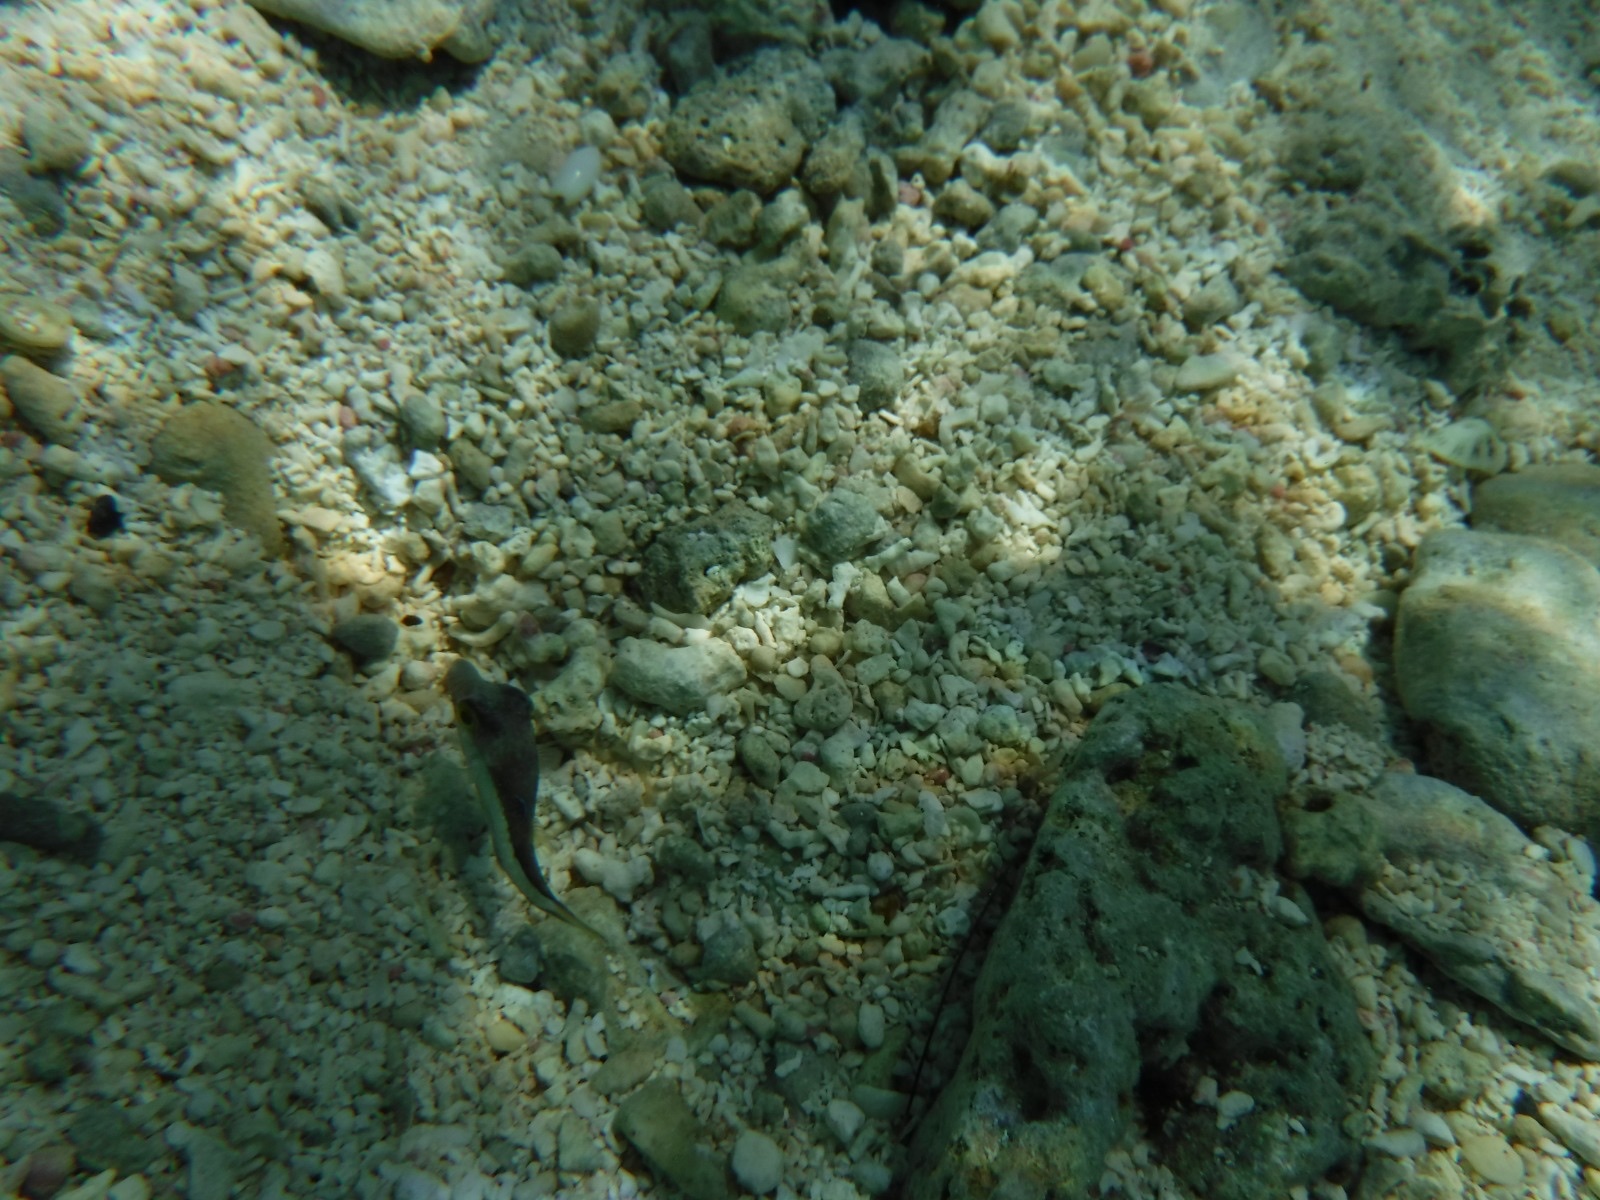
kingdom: Animalia
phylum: Chordata
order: Tetraodontiformes
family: Tetraodontidae
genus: Canthigaster
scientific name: Canthigaster rostrata
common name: Caribbean sharpnose-puffer
